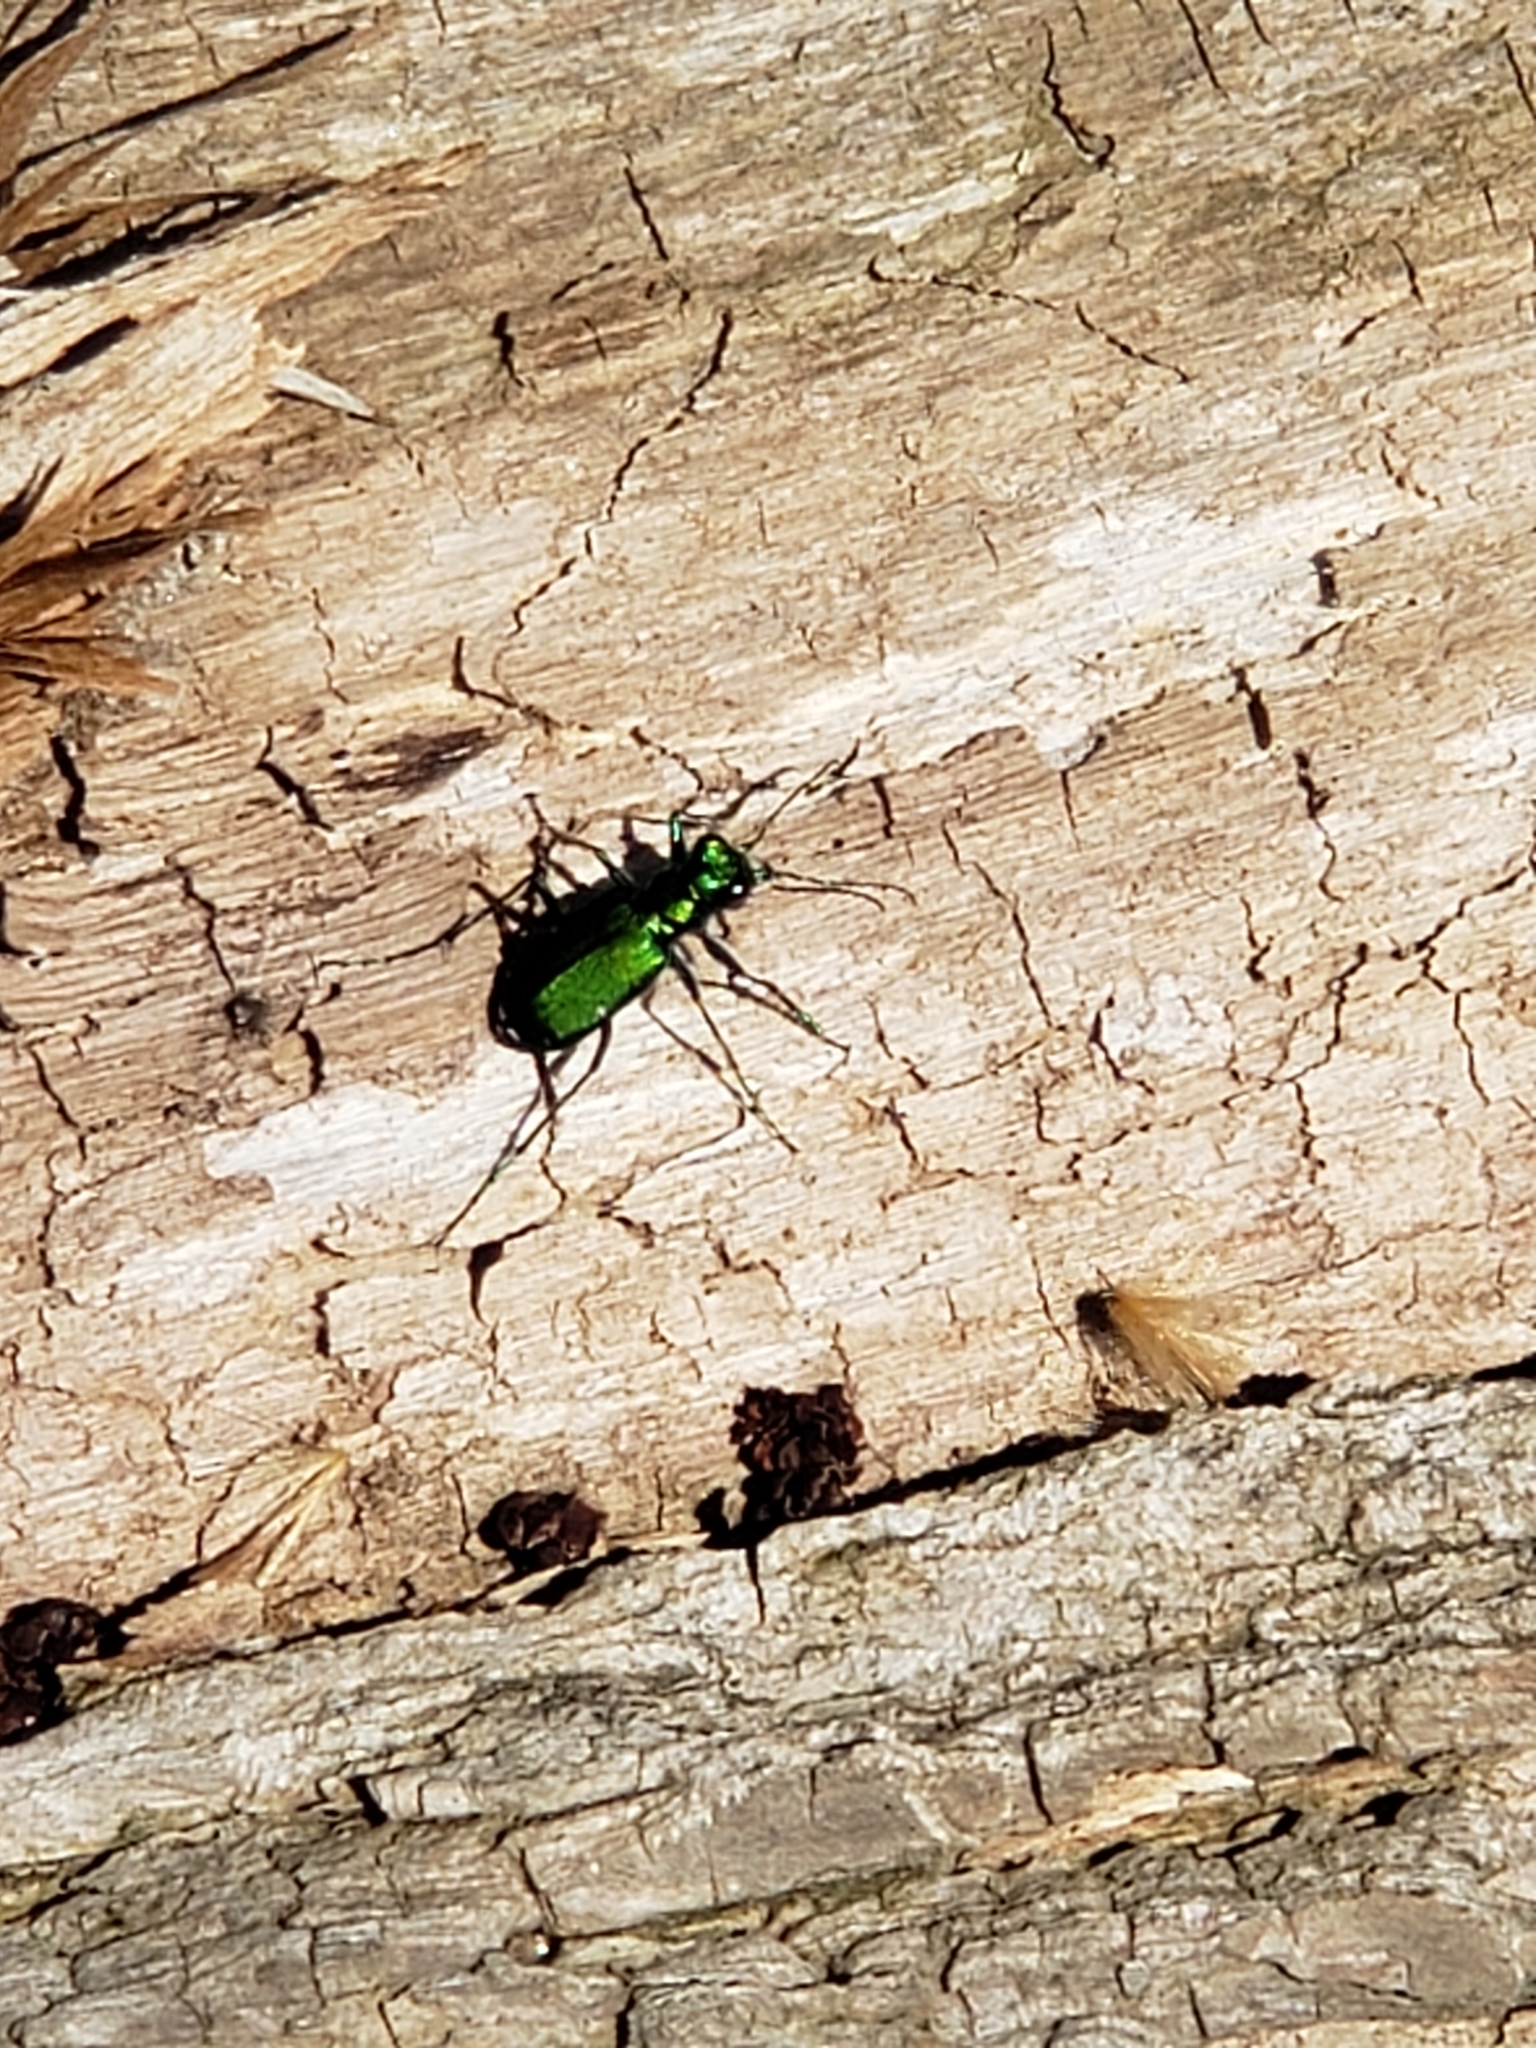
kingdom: Animalia
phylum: Arthropoda
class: Insecta
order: Coleoptera
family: Carabidae
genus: Cicindela
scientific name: Cicindela sexguttata
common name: Six-spotted tiger beetle
